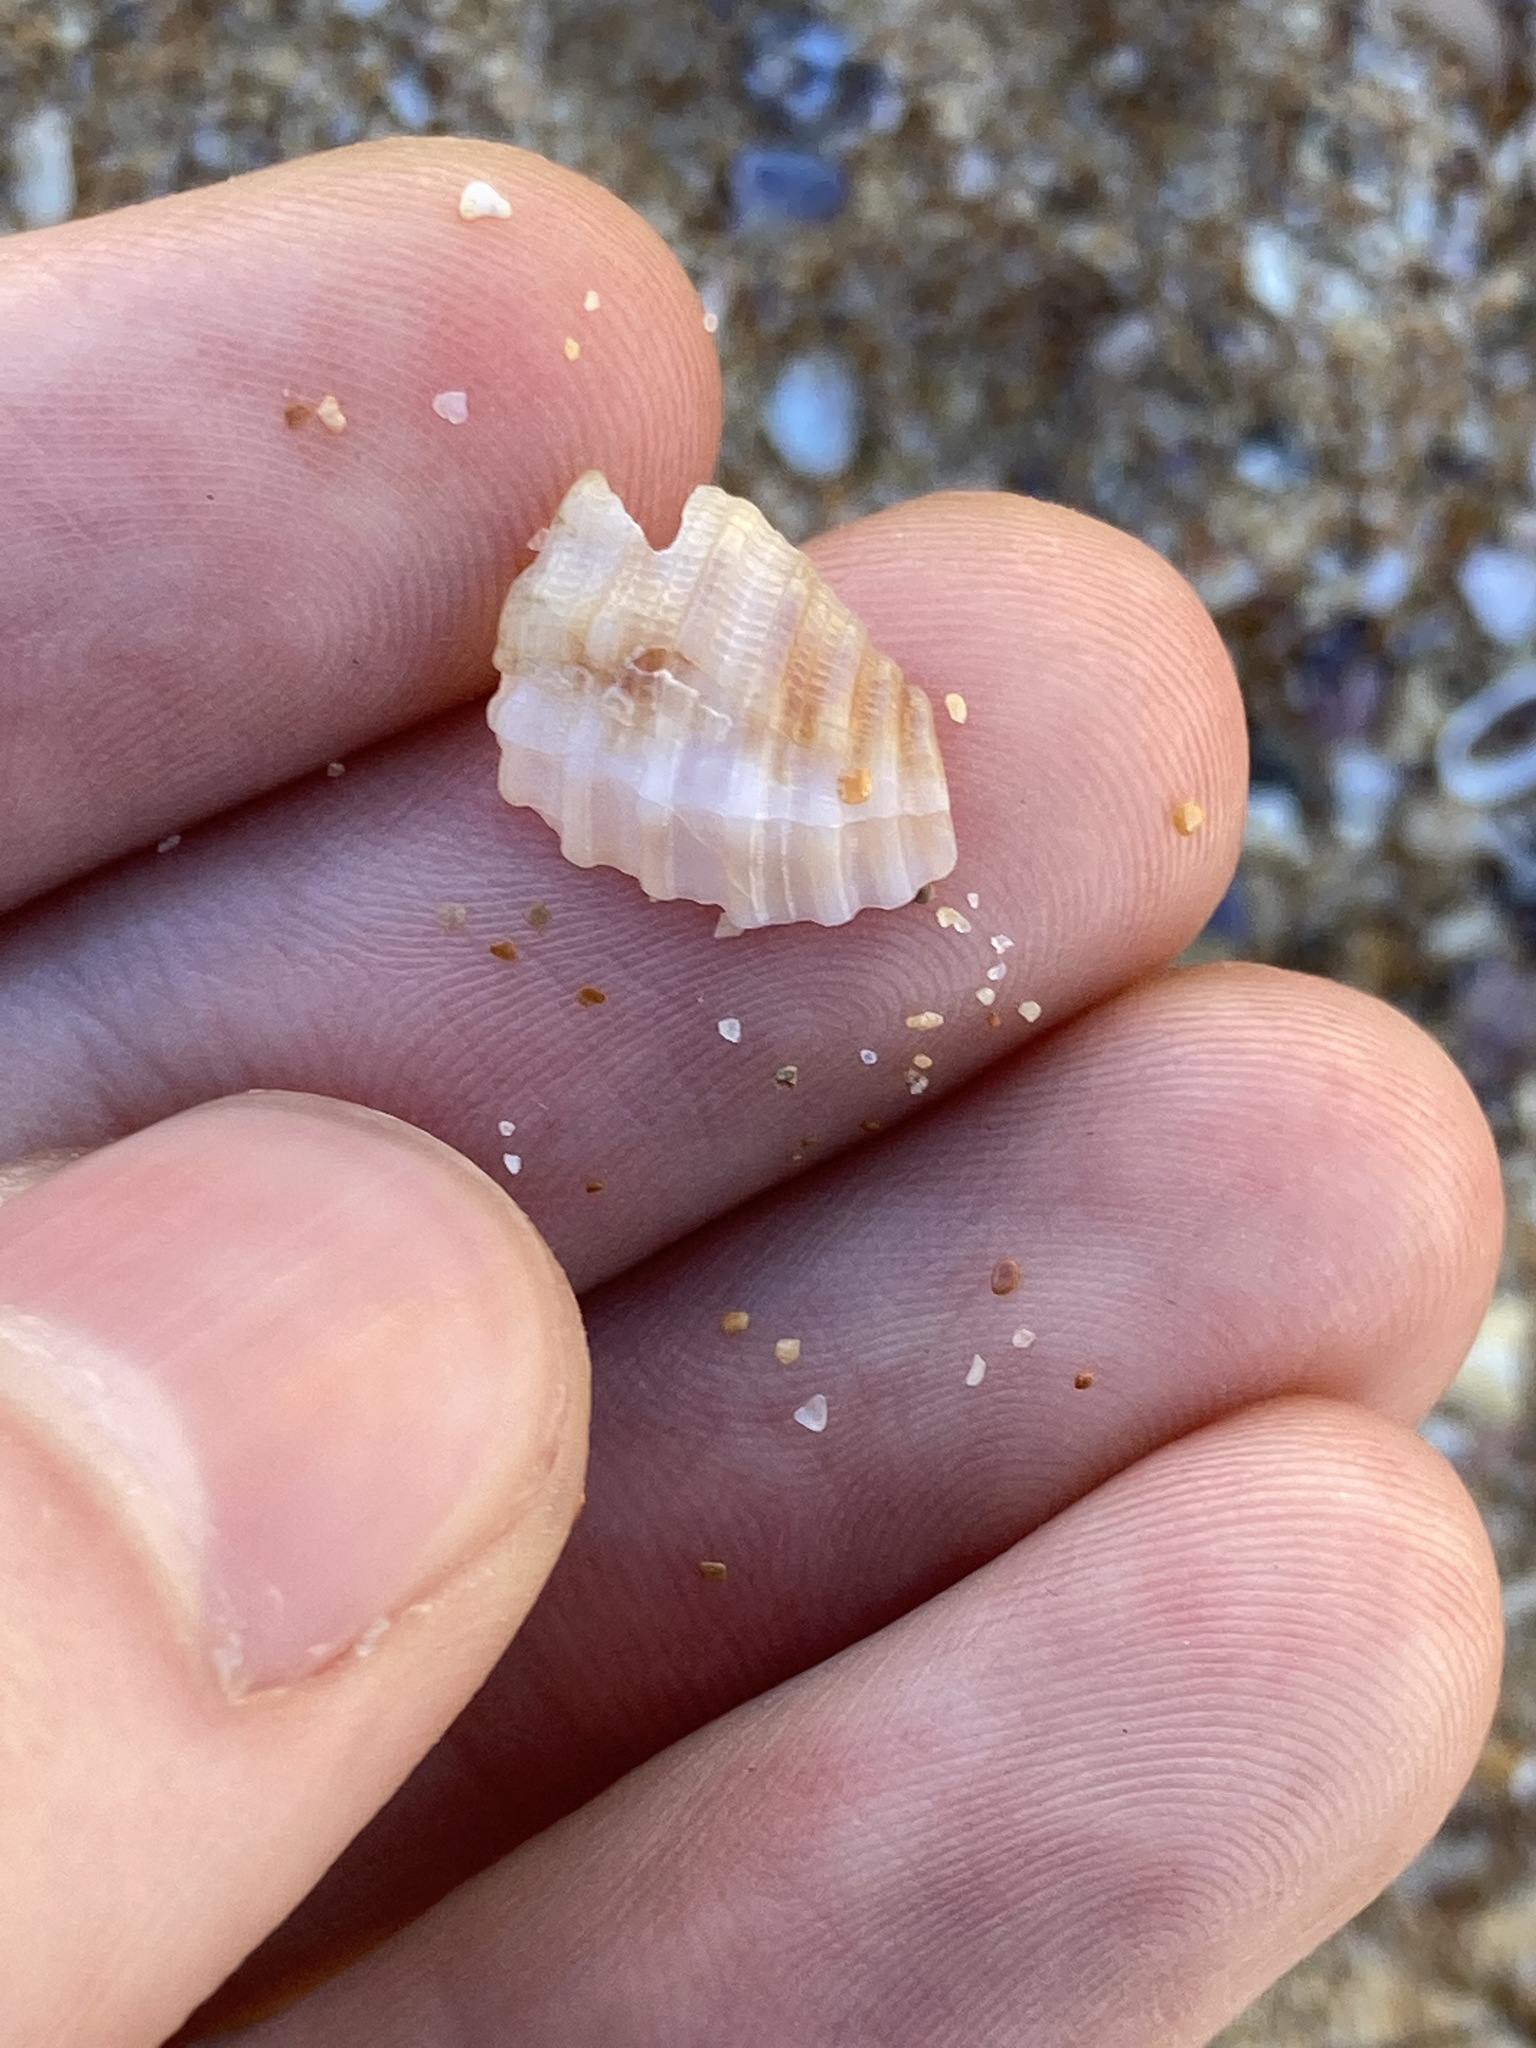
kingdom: Animalia
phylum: Mollusca
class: Gastropoda
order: Neogastropoda
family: Muricidae
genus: Dicathais
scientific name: Dicathais orbita
